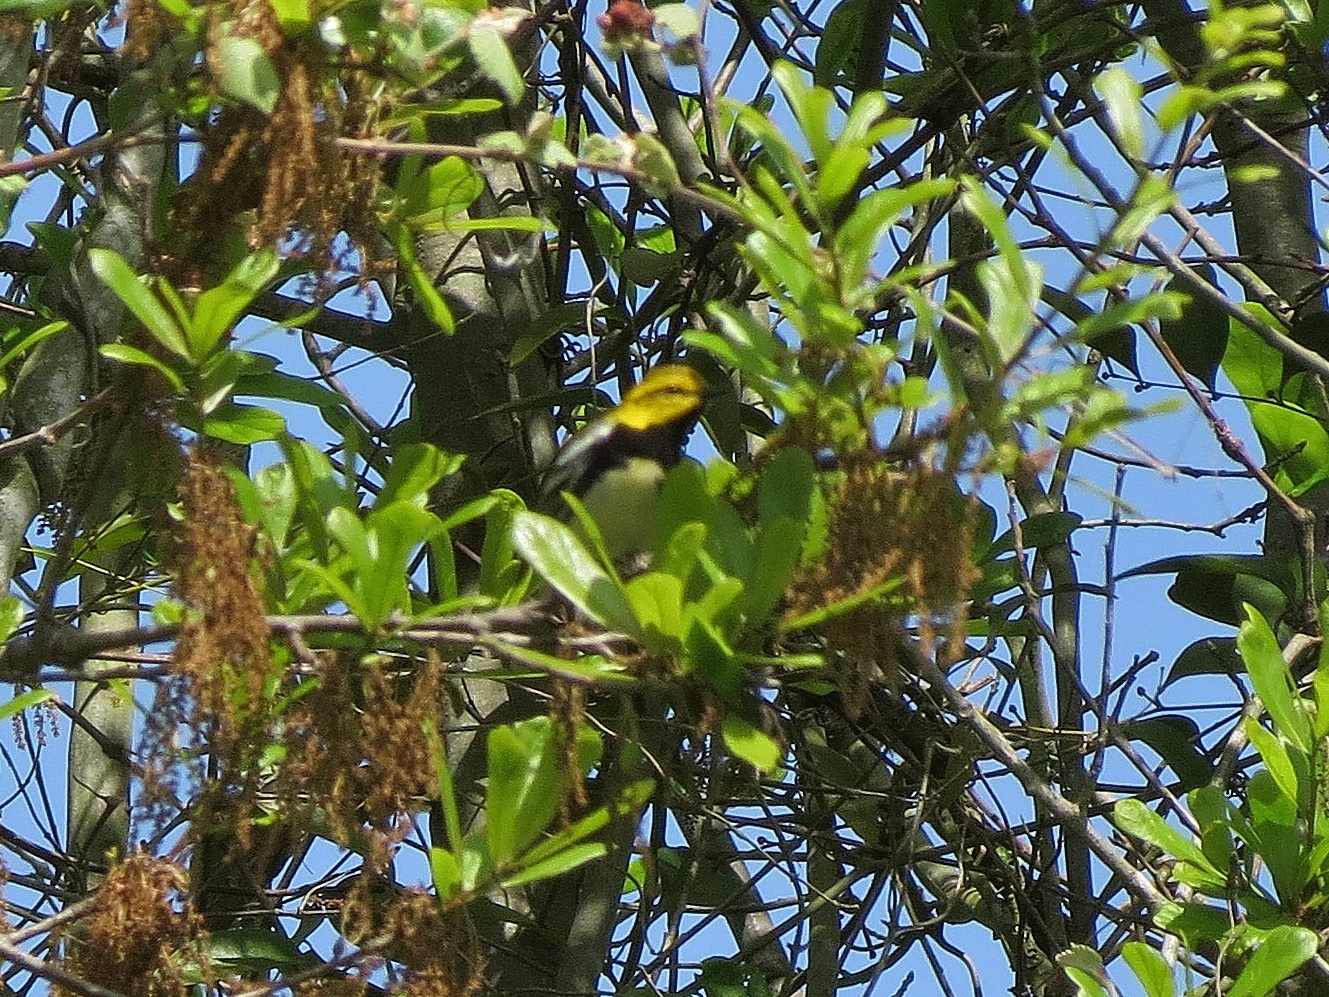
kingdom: Animalia
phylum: Chordata
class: Aves
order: Passeriformes
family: Parulidae
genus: Setophaga
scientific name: Setophaga virens
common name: Black-throated green warbler
